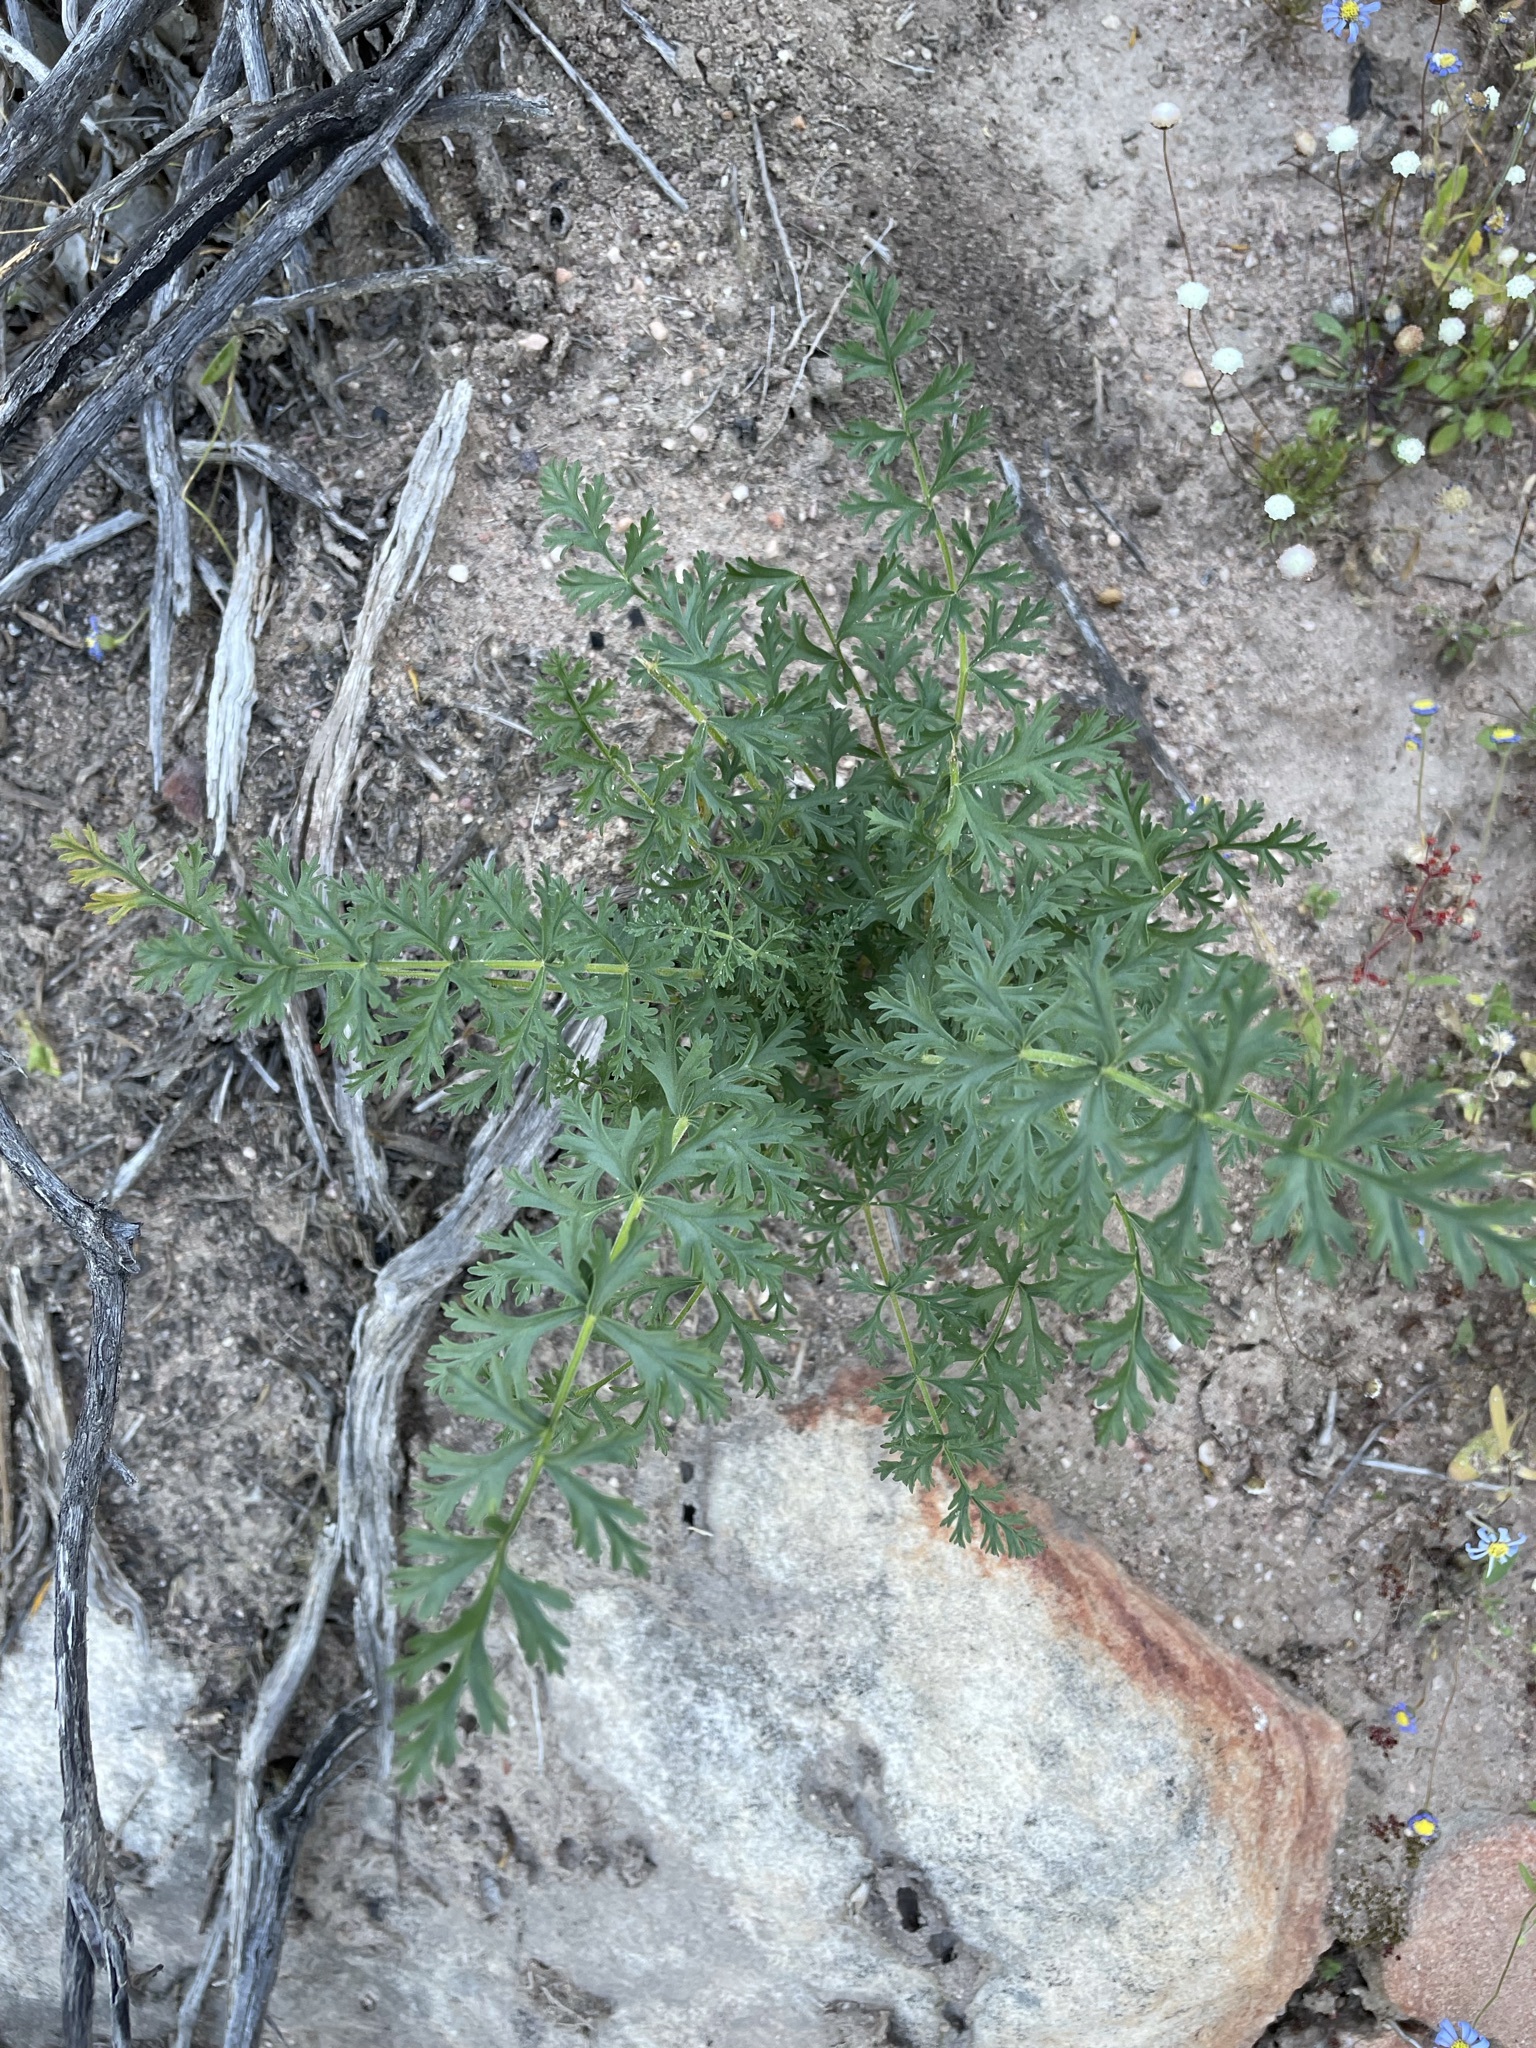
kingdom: Plantae
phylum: Tracheophyta
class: Magnoliopsida
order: Geraniales
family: Geraniaceae
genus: Pelargonium
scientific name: Pelargonium rapaceum
